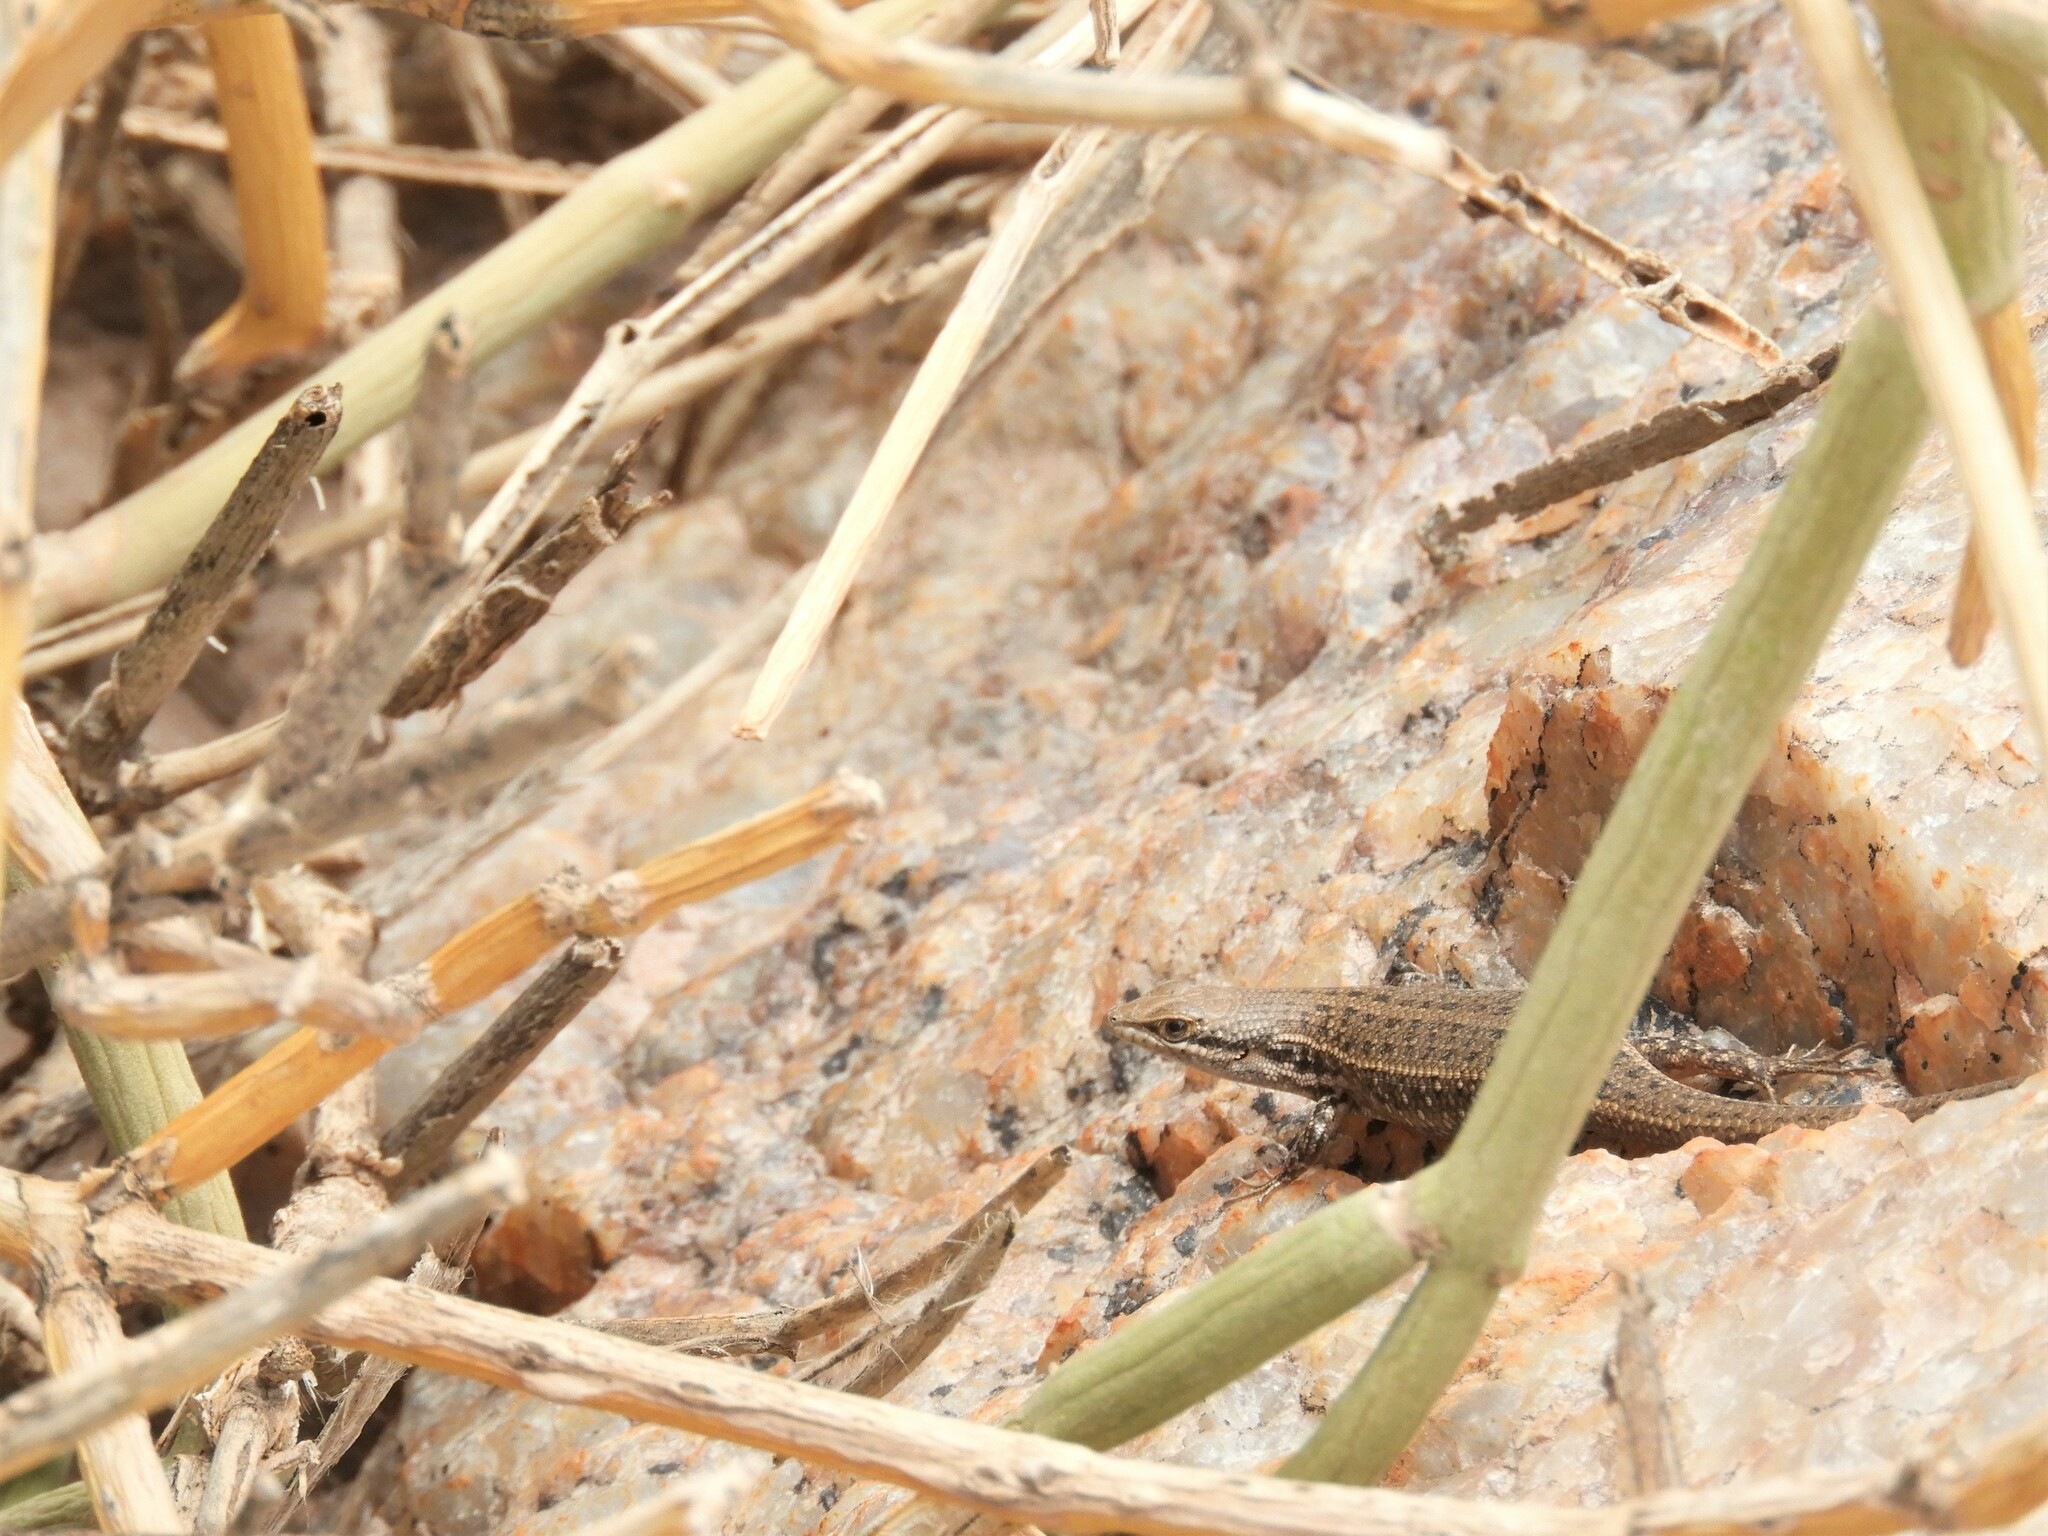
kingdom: Animalia
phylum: Chordata
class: Squamata
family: Scincidae
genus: Trachylepis
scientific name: Trachylepis variegata
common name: Variegated skink
